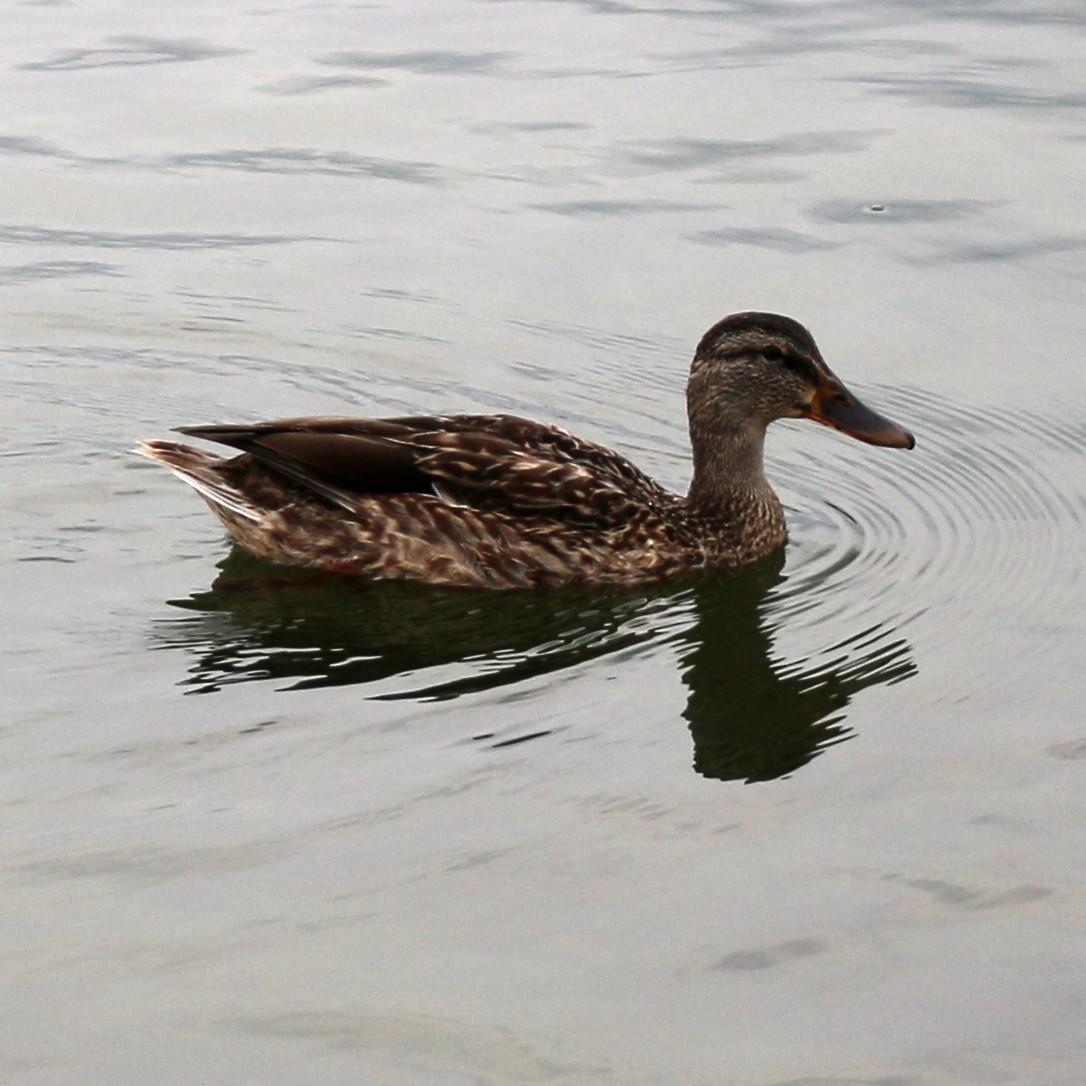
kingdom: Animalia
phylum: Chordata
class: Aves
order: Anseriformes
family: Anatidae
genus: Anas
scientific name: Anas platyrhynchos
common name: Mallard
